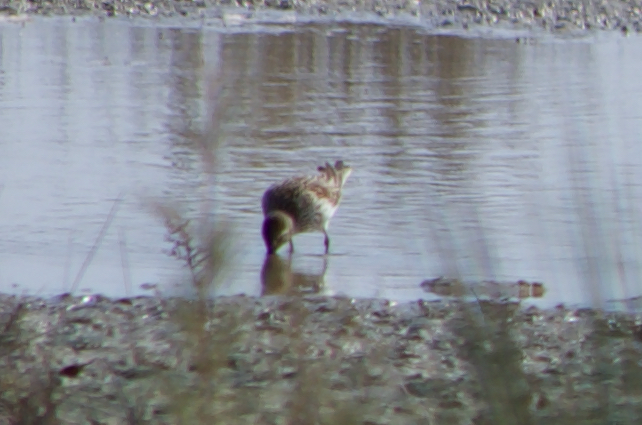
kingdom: Animalia
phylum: Chordata
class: Aves
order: Charadriiformes
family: Scolopacidae
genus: Calidris
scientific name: Calidris alpina
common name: Dunlin
